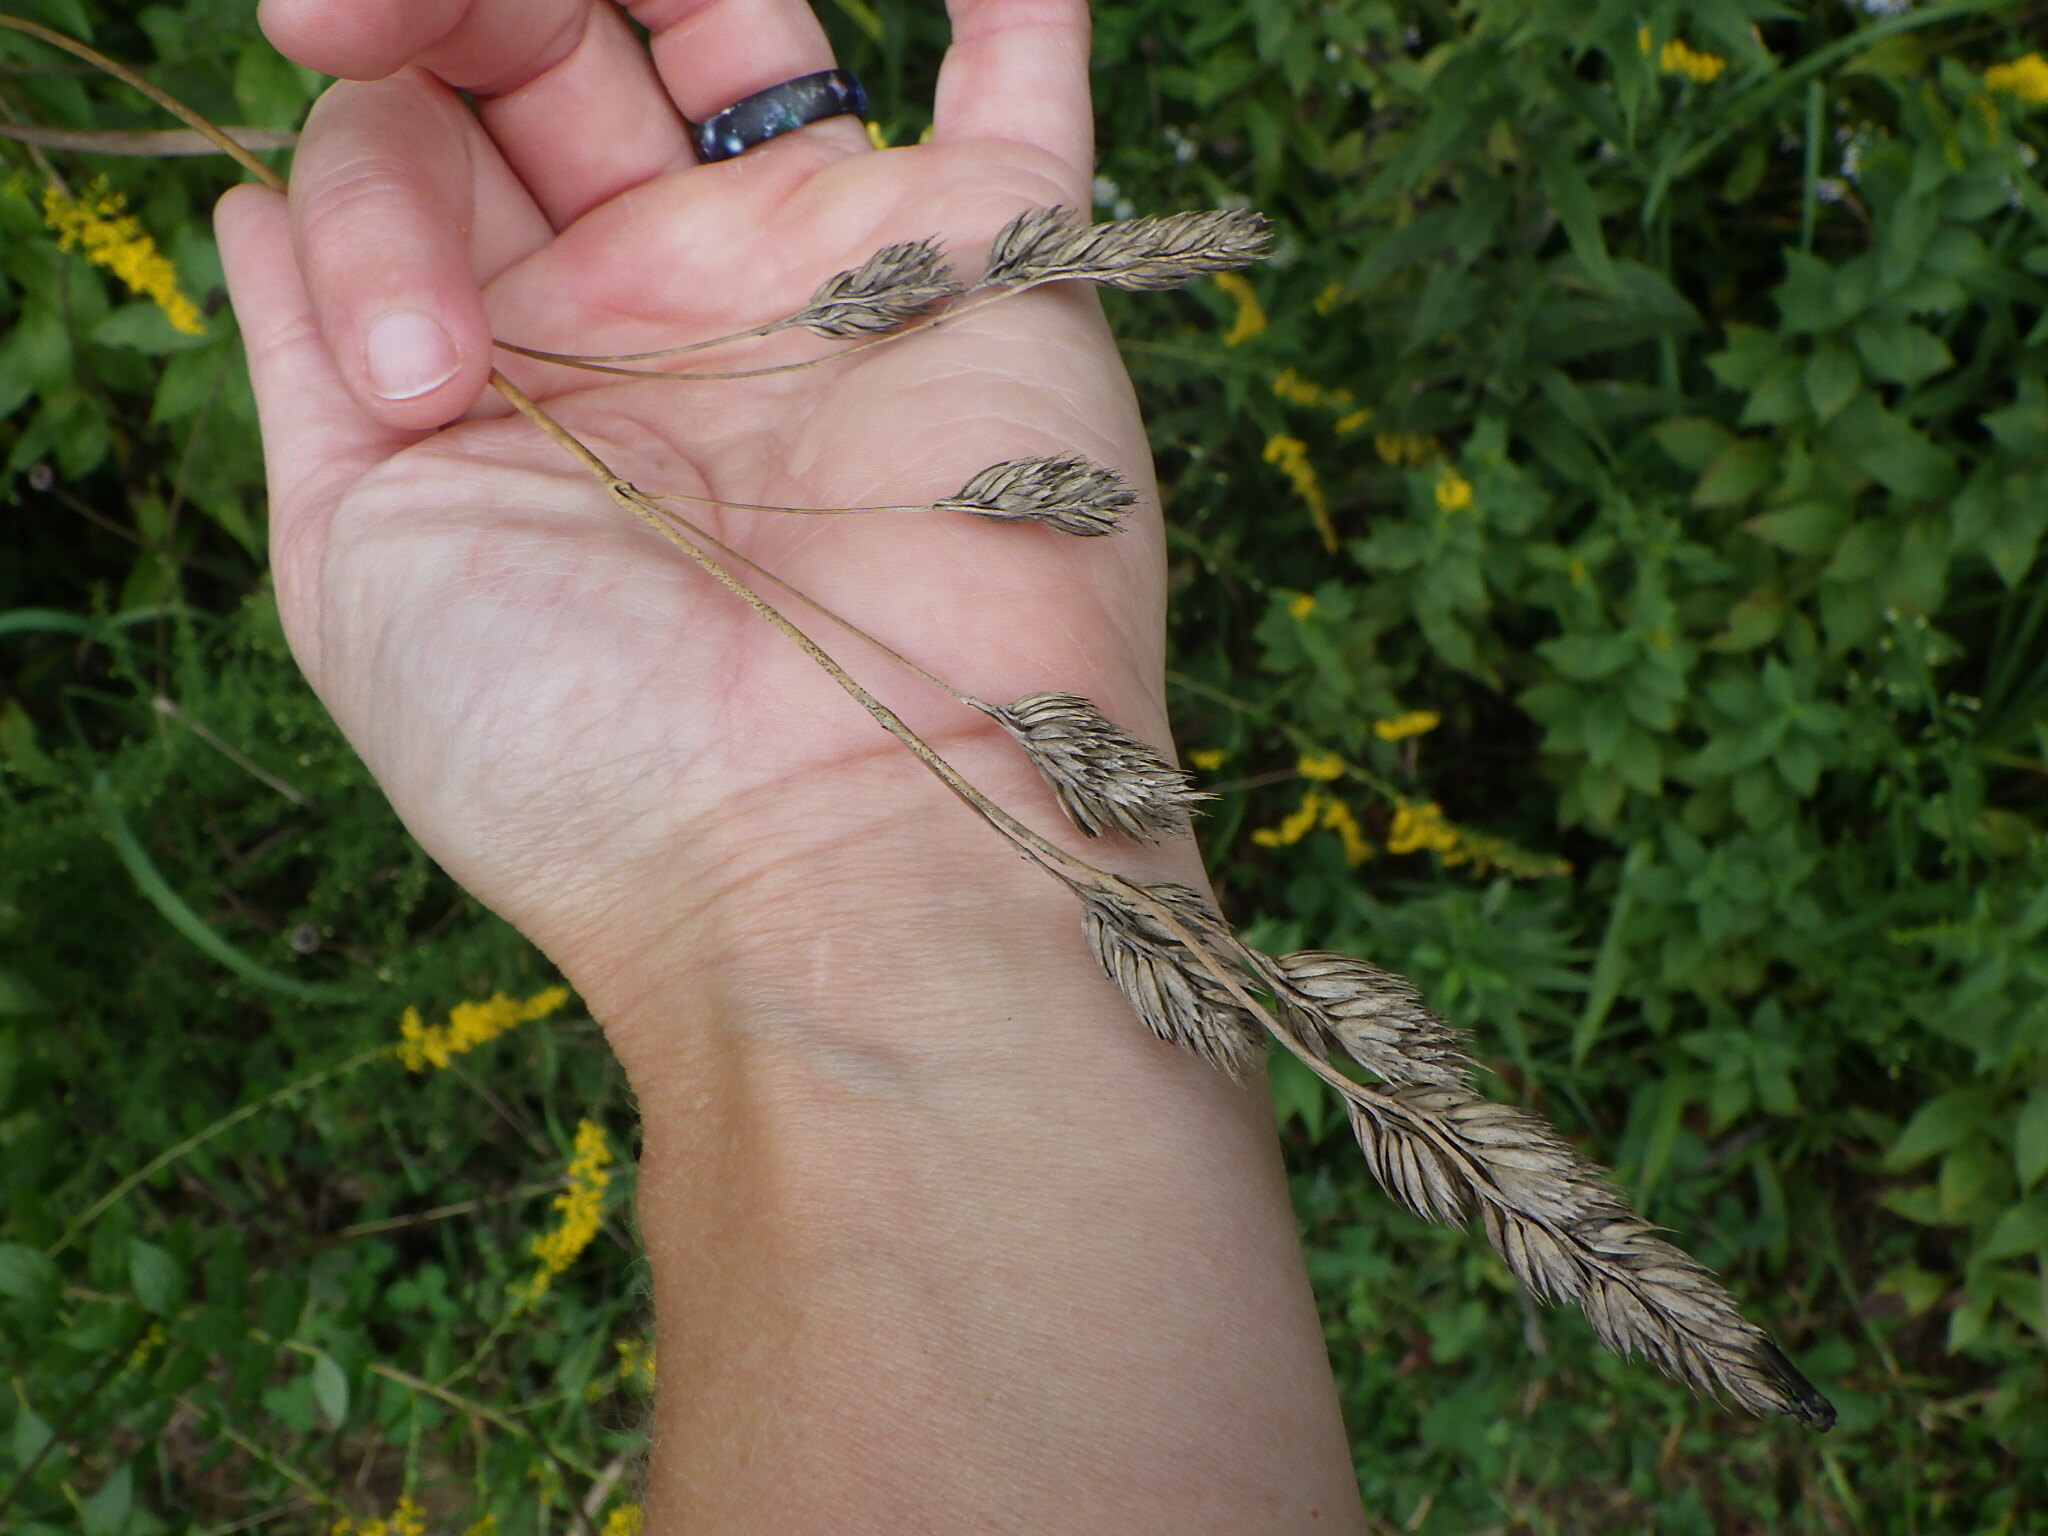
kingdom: Plantae
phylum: Tracheophyta
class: Liliopsida
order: Poales
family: Poaceae
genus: Dactylis
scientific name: Dactylis glomerata
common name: Orchardgrass
